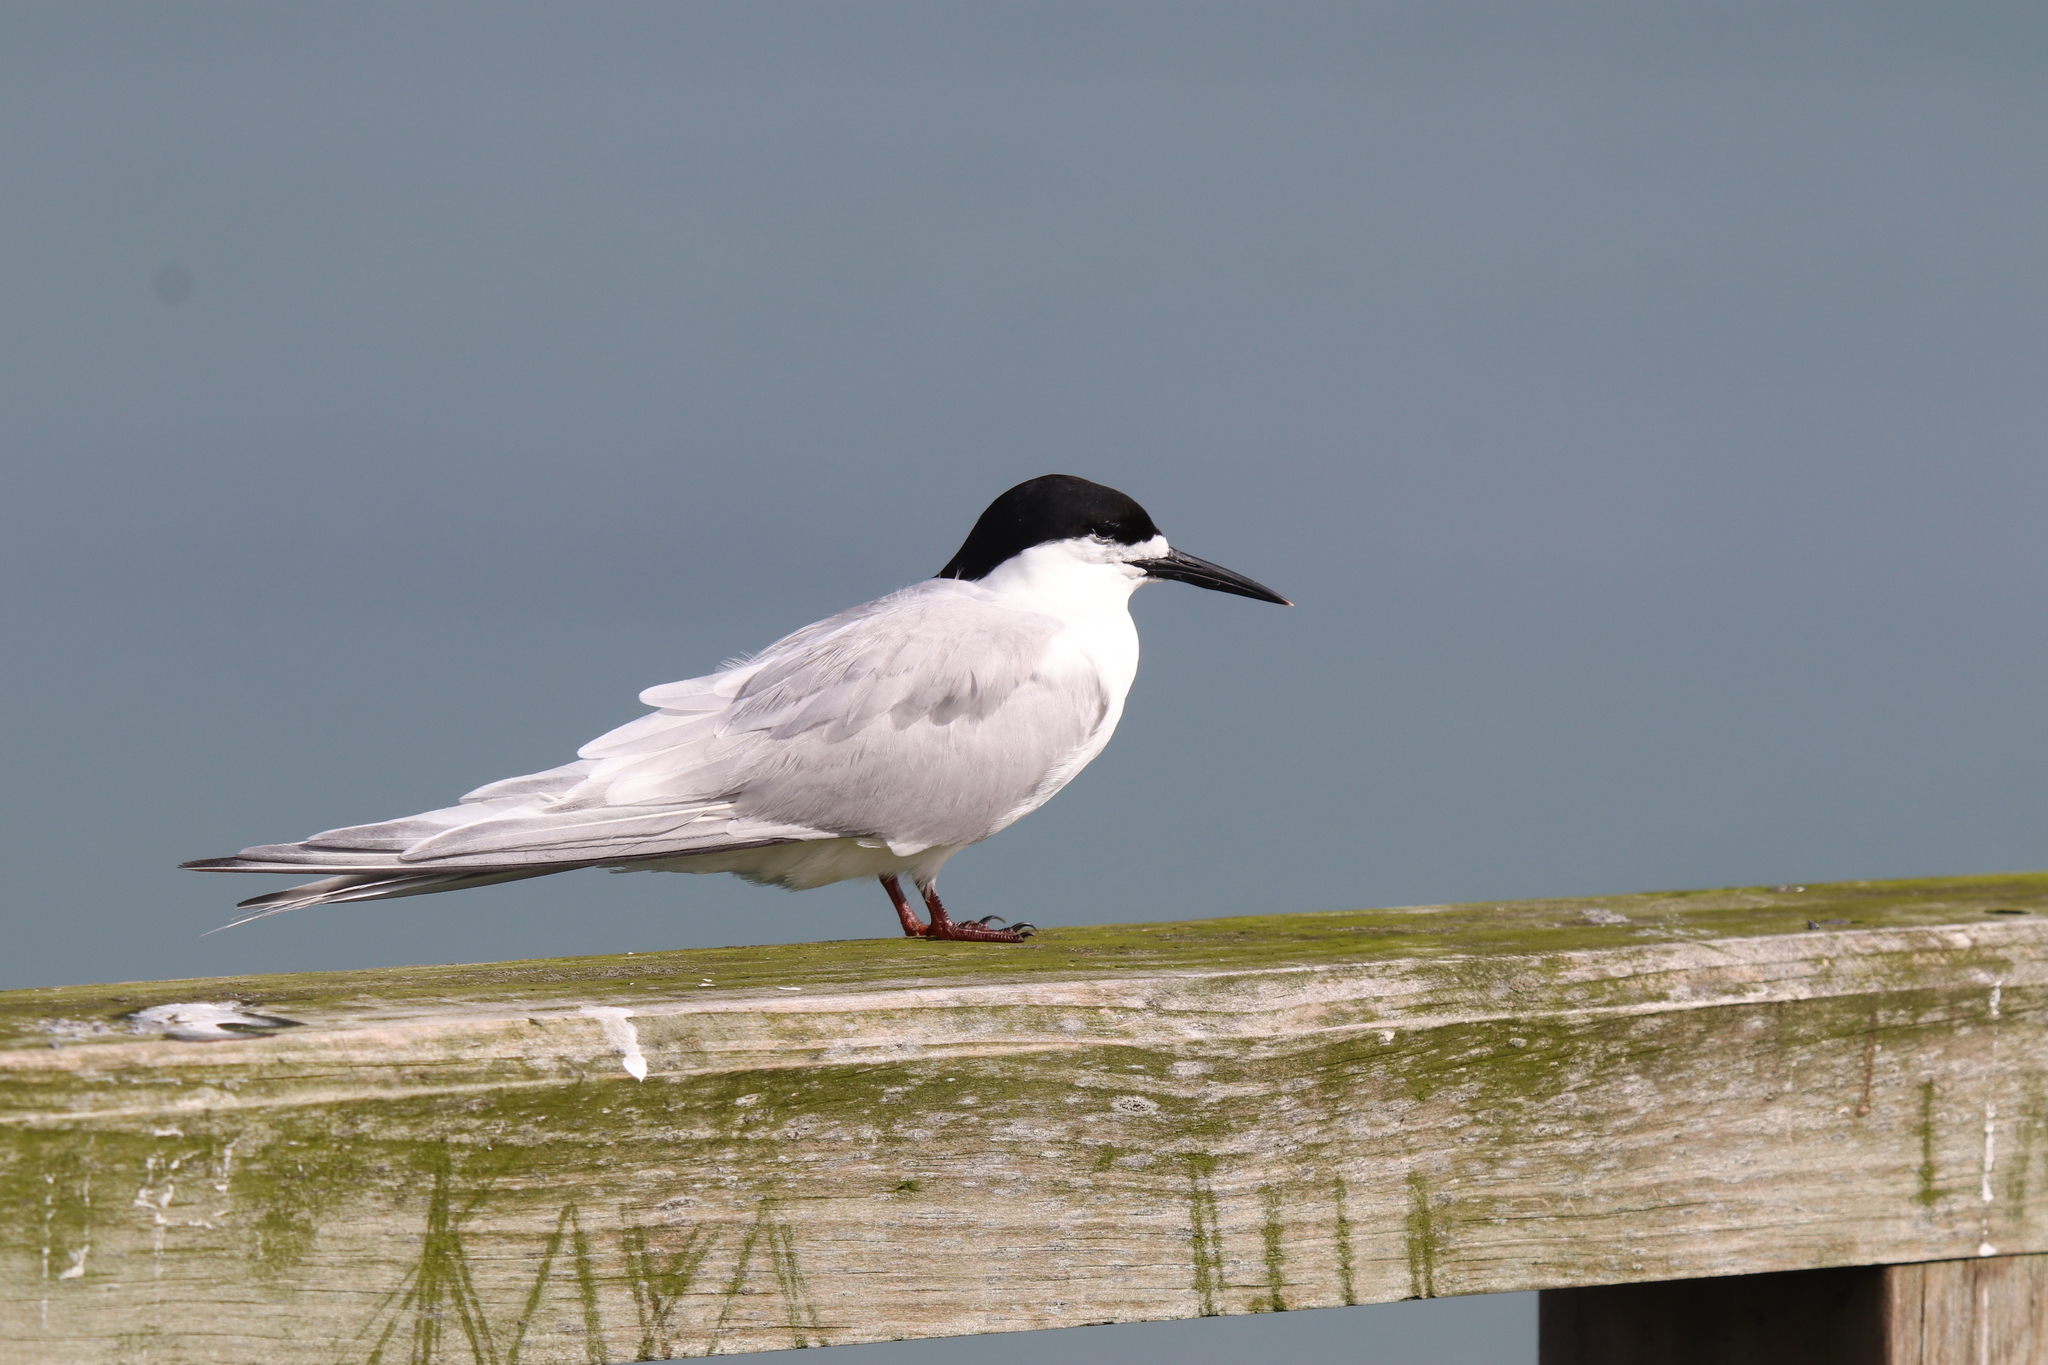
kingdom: Animalia
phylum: Chordata
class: Aves
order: Charadriiformes
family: Laridae
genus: Sterna
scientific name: Sterna striata
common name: White-fronted tern
